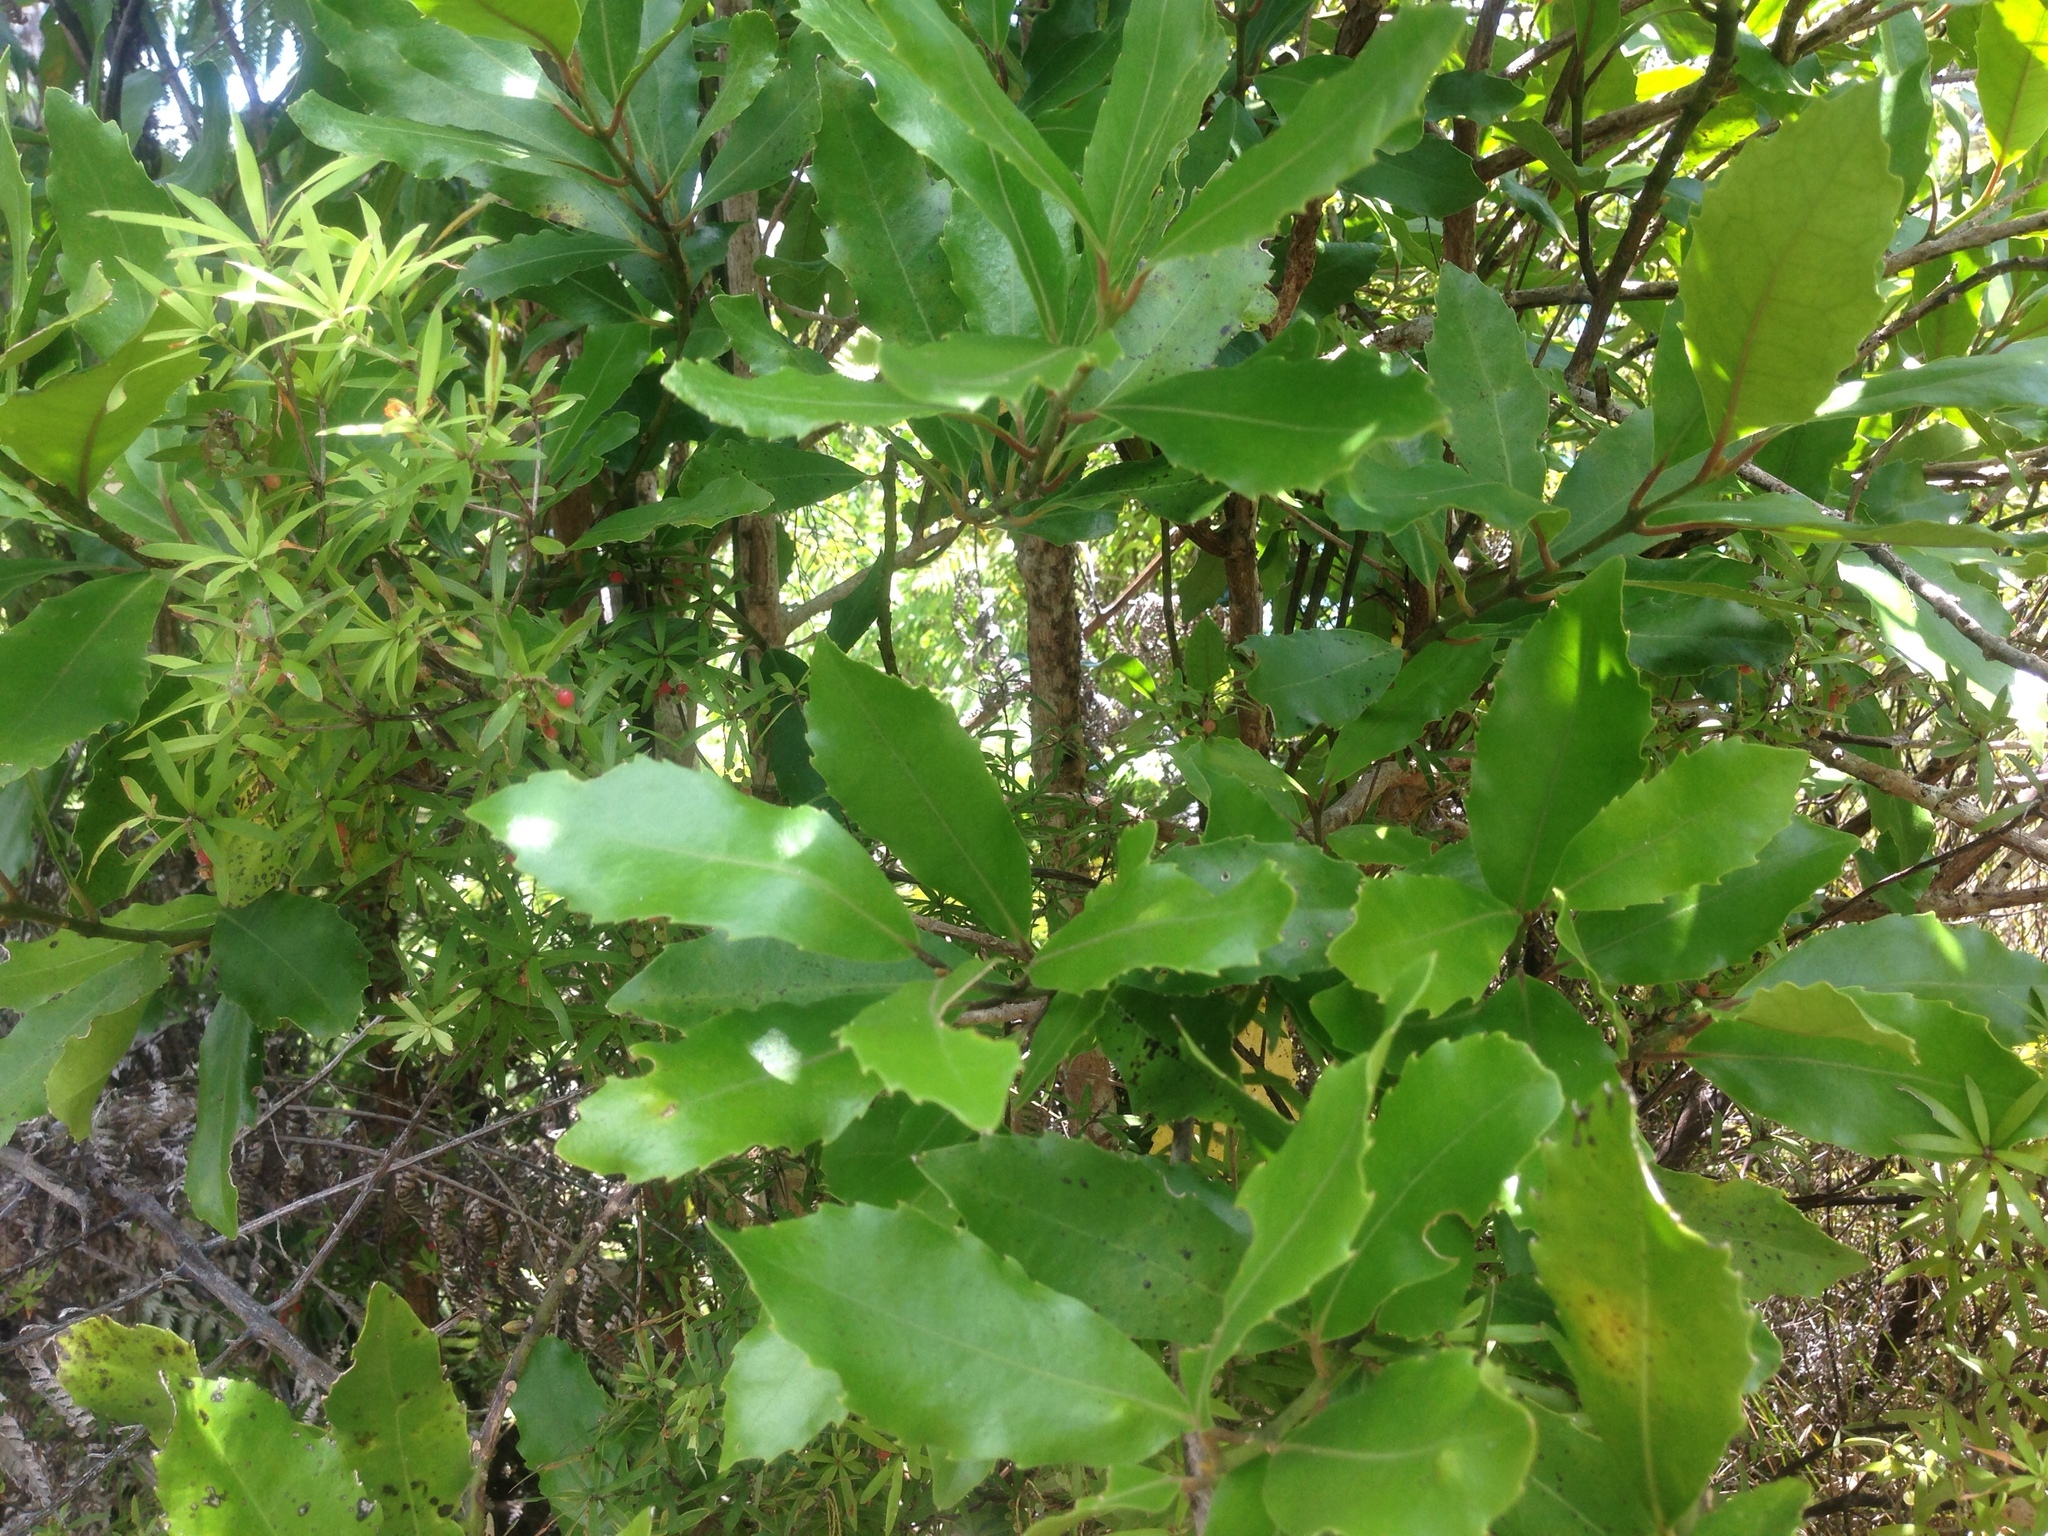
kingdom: Plantae
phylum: Tracheophyta
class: Magnoliopsida
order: Laurales
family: Monimiaceae
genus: Hedycarya
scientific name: Hedycarya arborea
